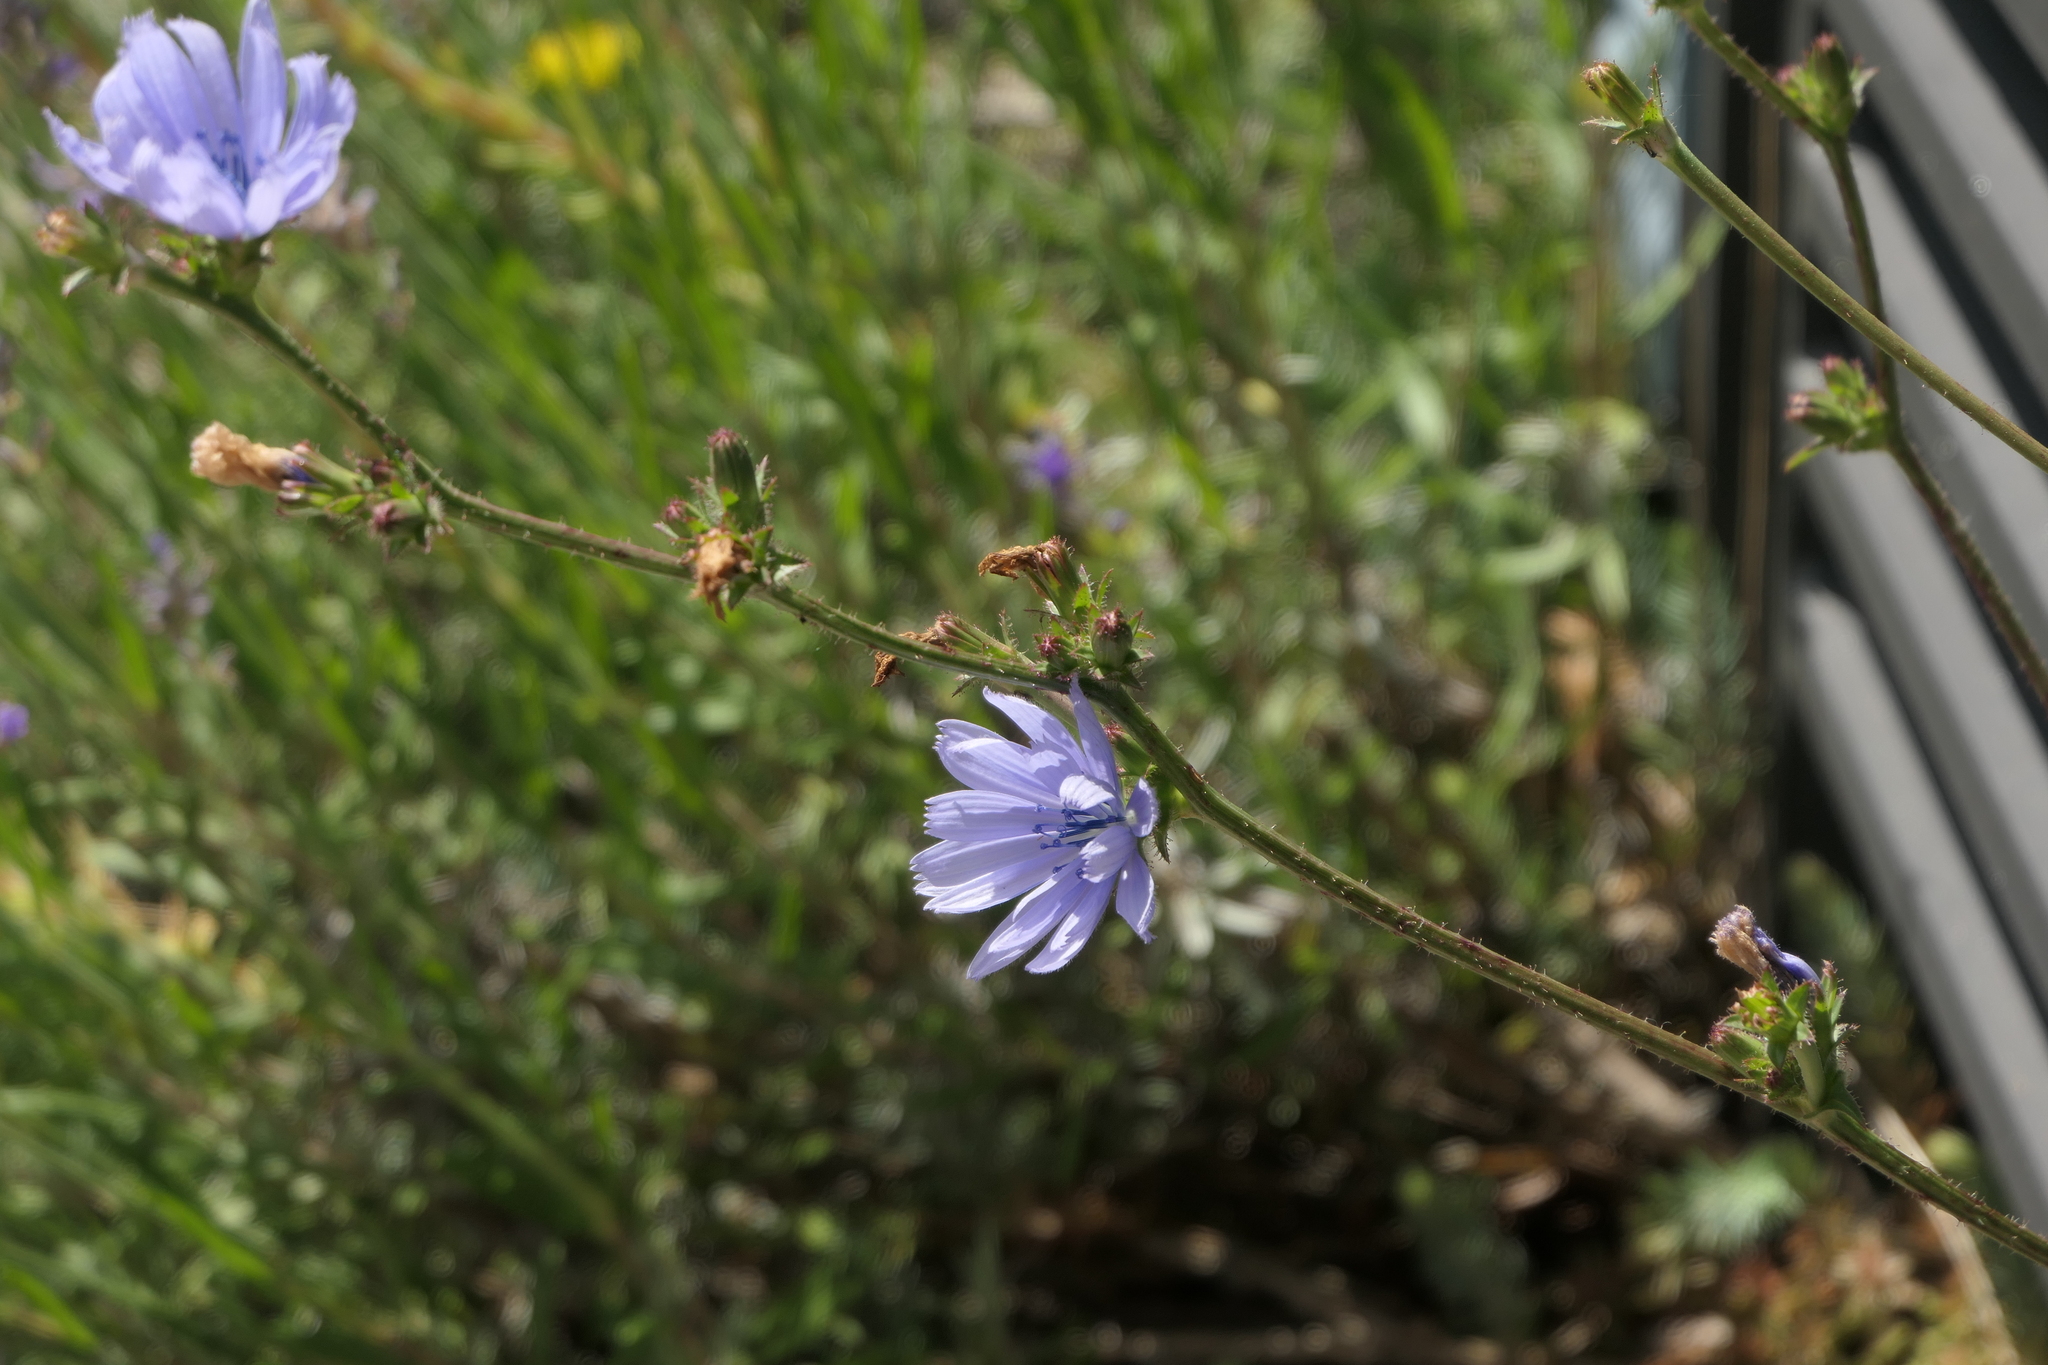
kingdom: Plantae
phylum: Tracheophyta
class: Magnoliopsida
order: Asterales
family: Asteraceae
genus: Cichorium
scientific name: Cichorium intybus
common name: Chicory
